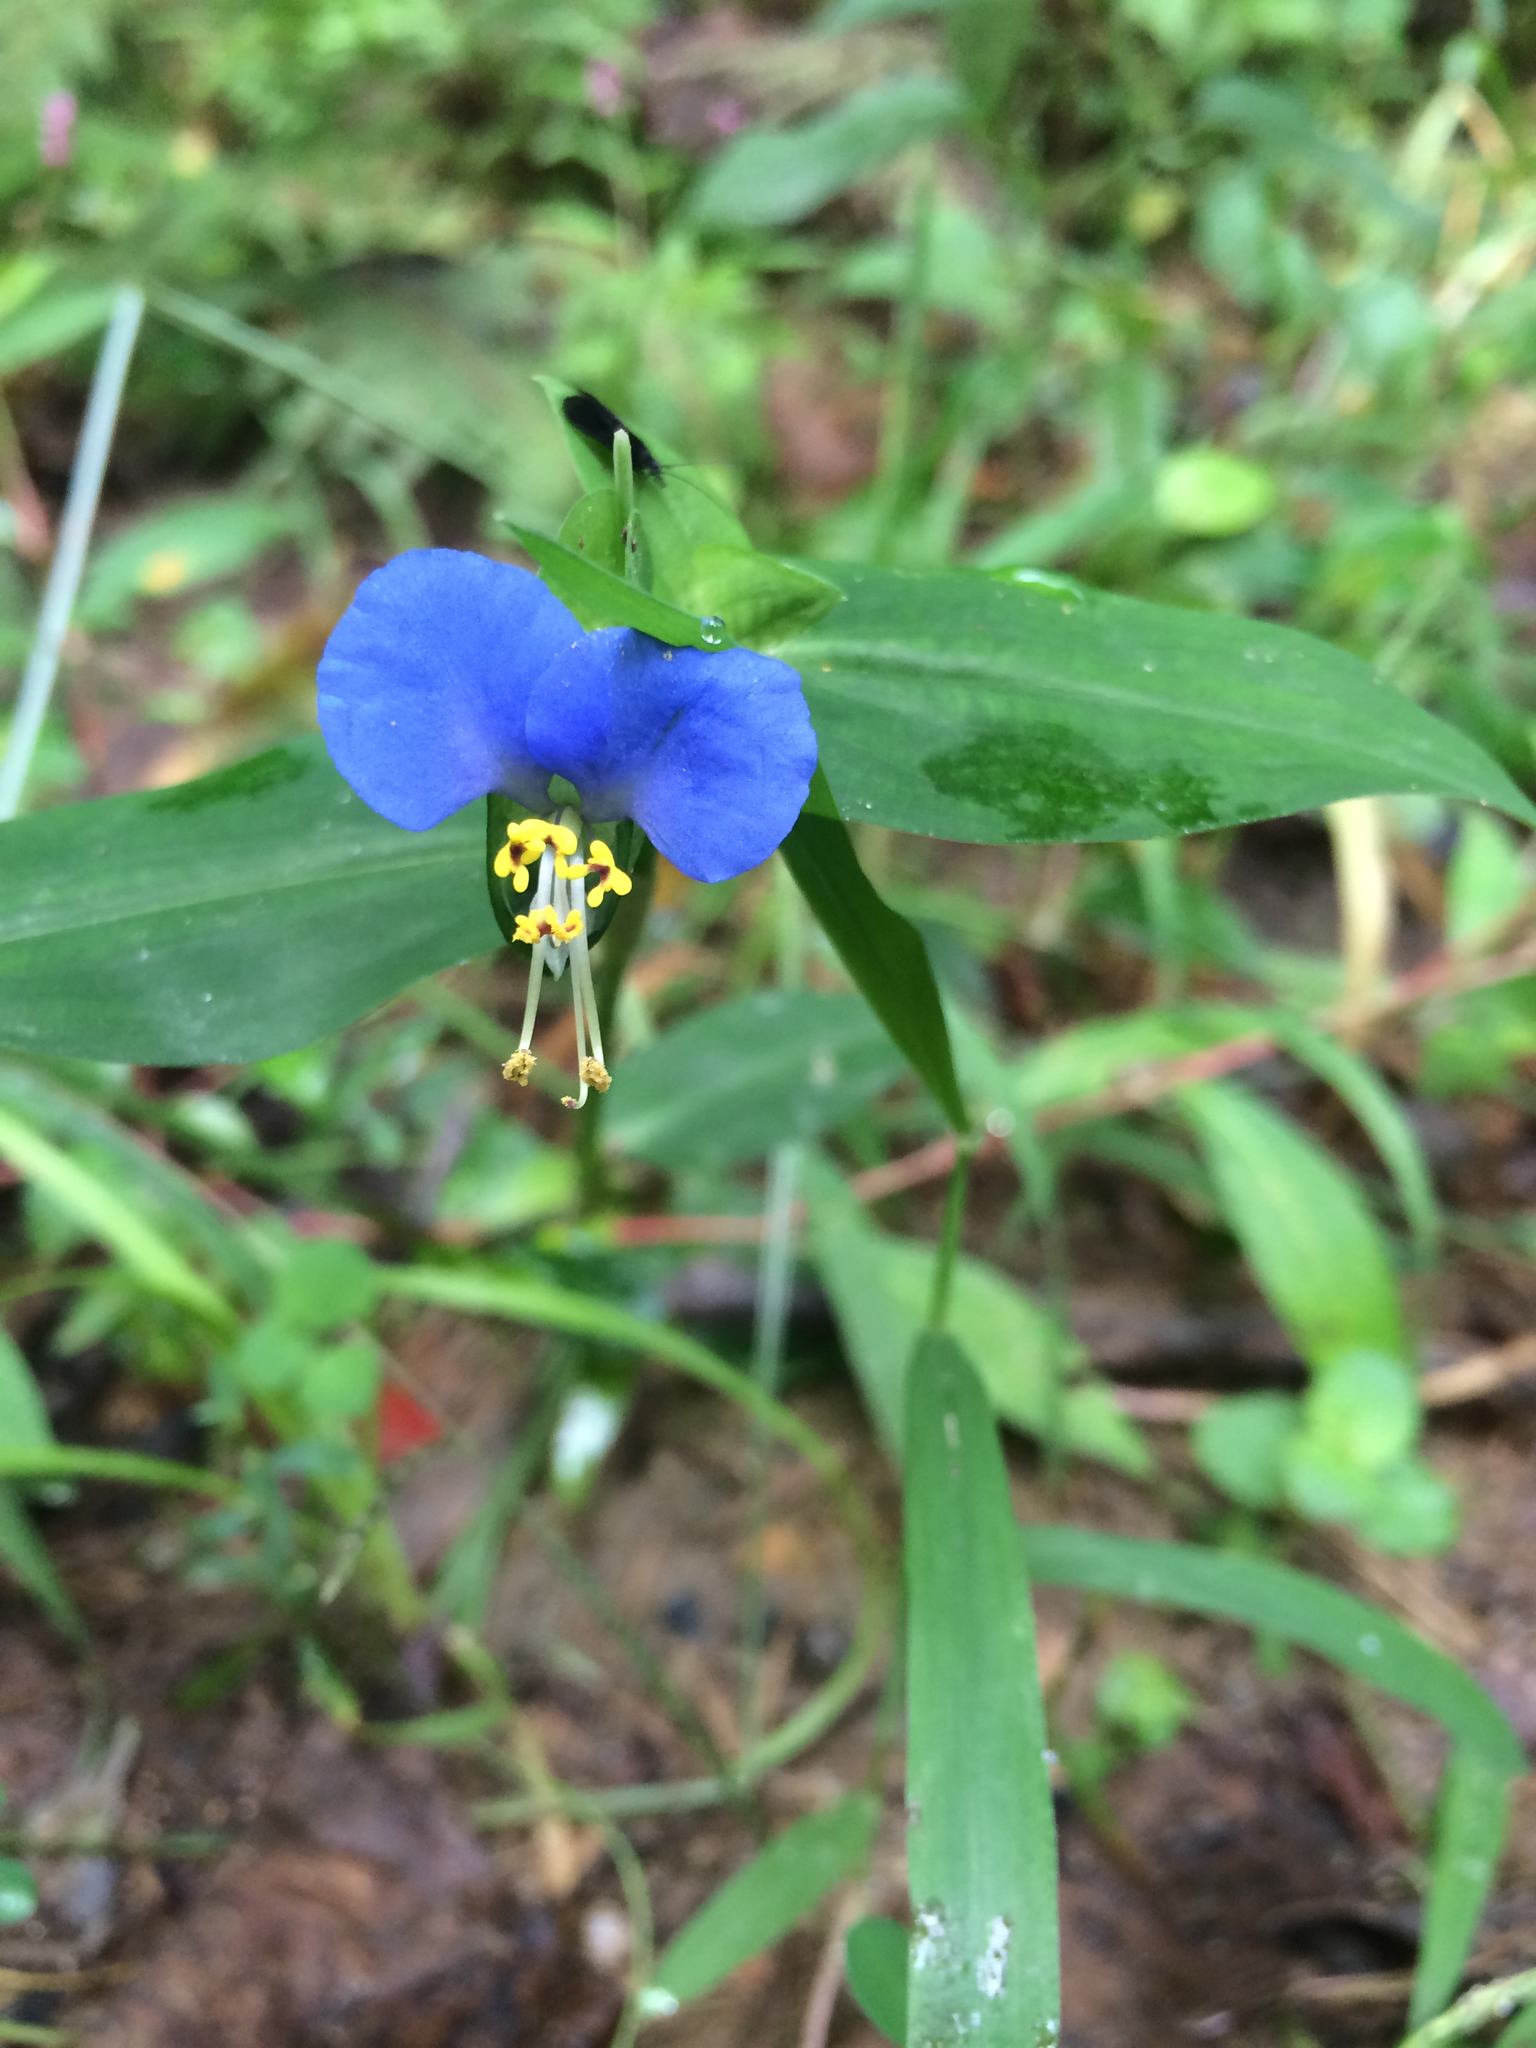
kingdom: Plantae
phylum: Tracheophyta
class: Liliopsida
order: Commelinales
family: Commelinaceae
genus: Commelina
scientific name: Commelina communis
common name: Asiatic dayflower
